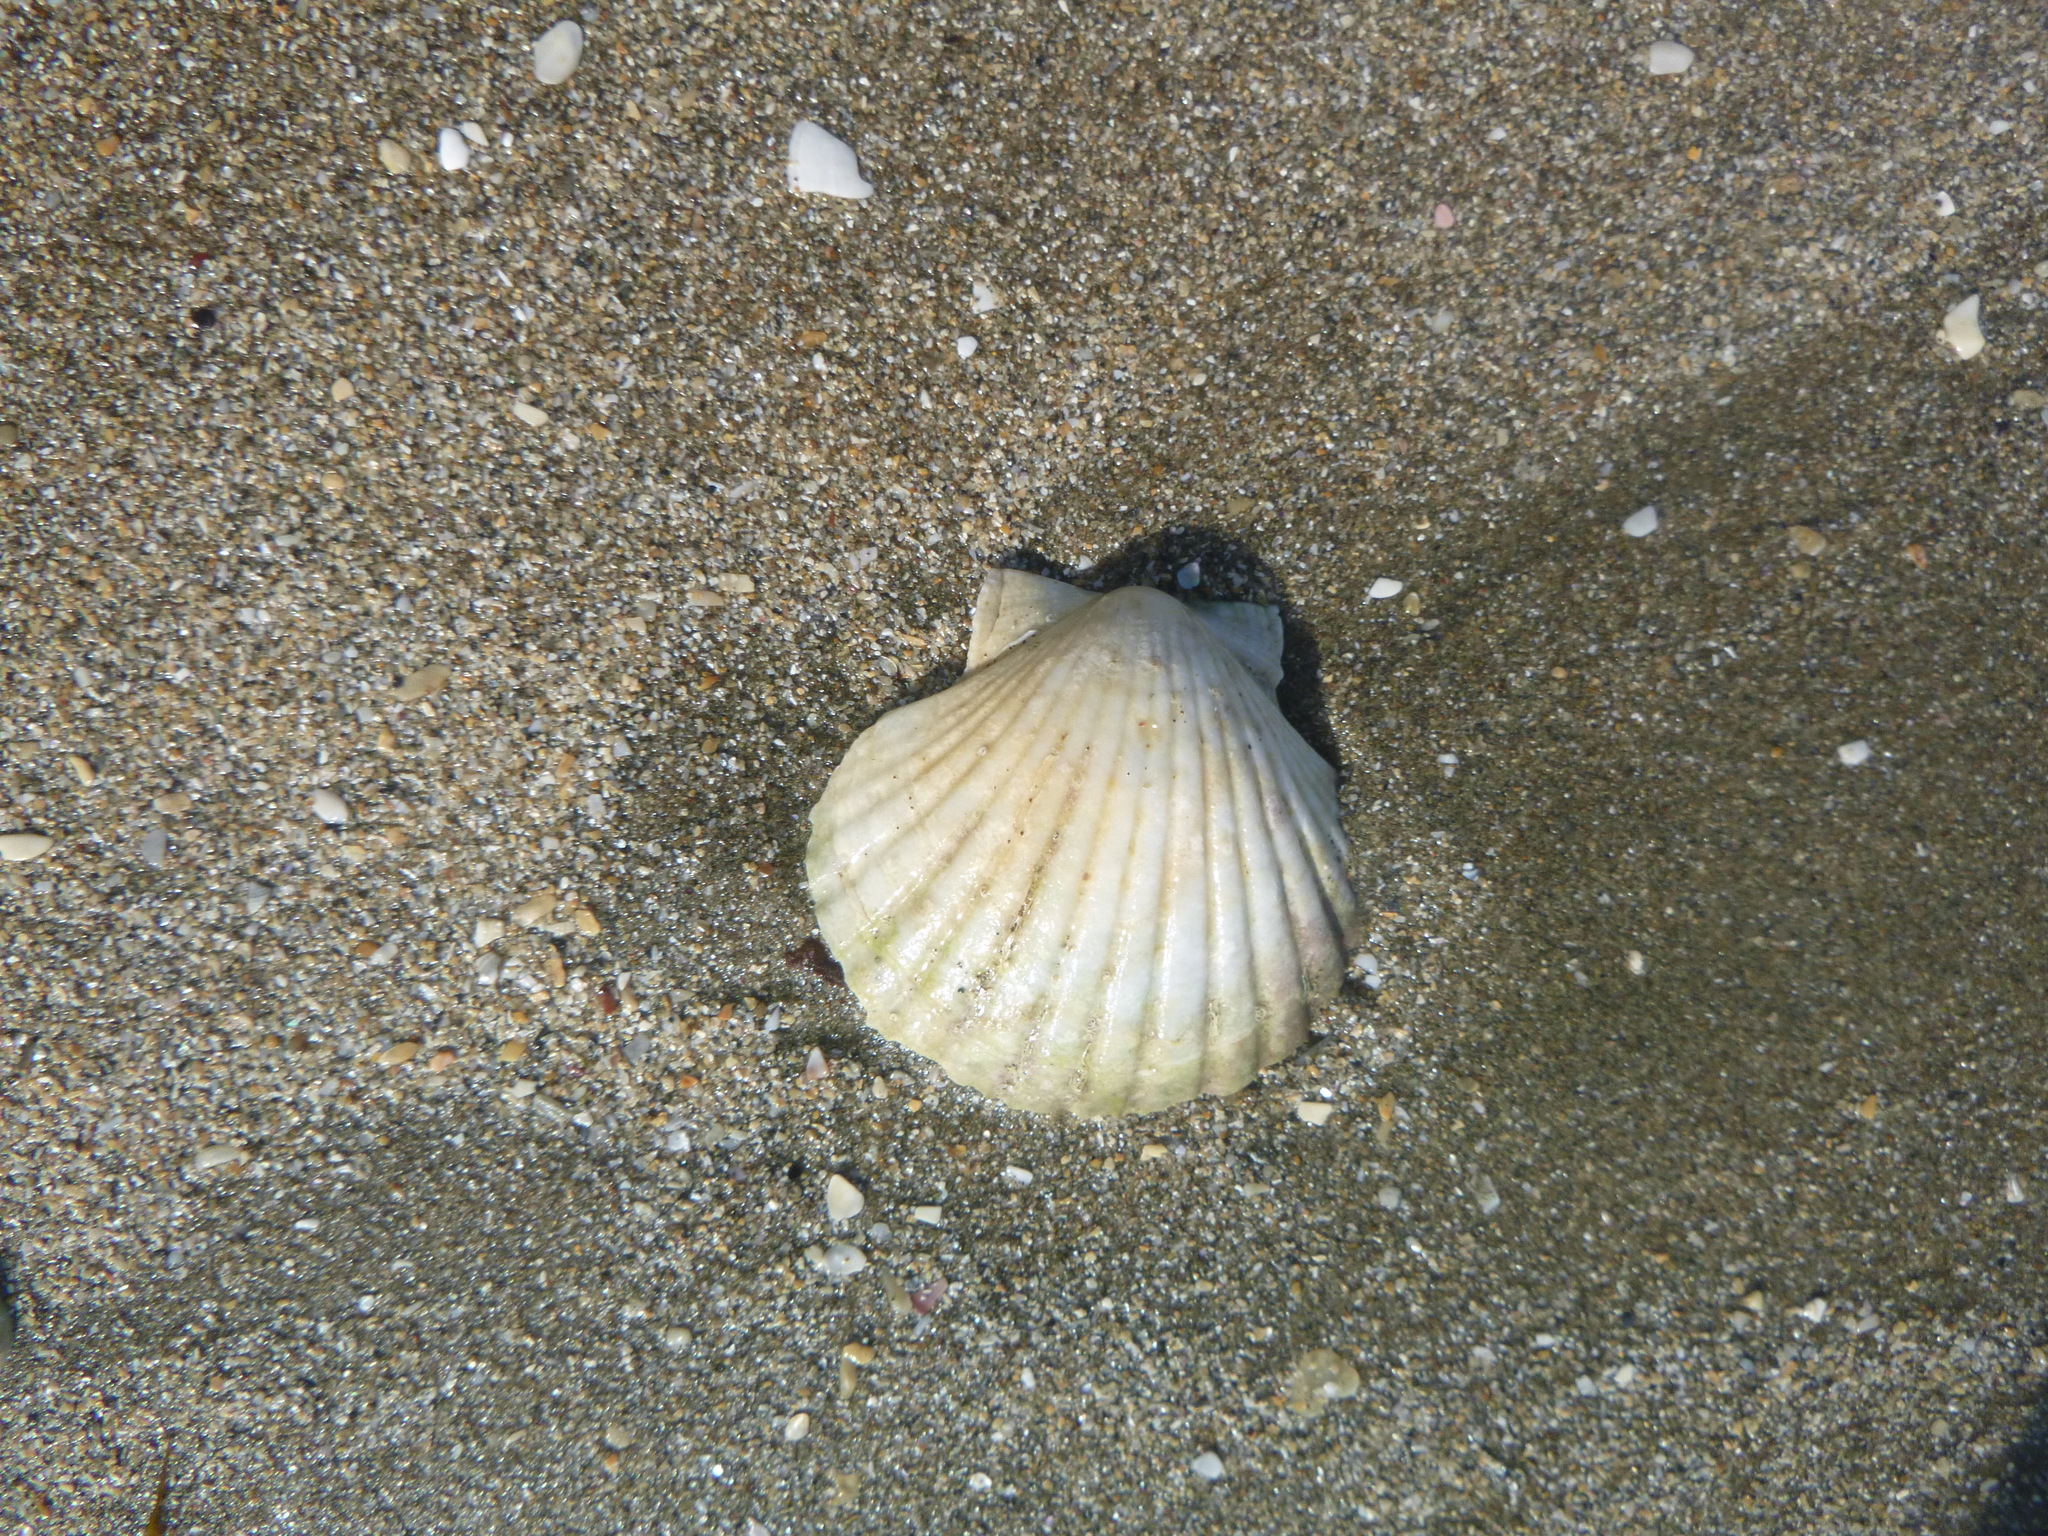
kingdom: Animalia
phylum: Mollusca
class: Bivalvia
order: Pectinida
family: Pectinidae
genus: Pecten
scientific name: Pecten novaezelandiae
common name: New zealand scallop
